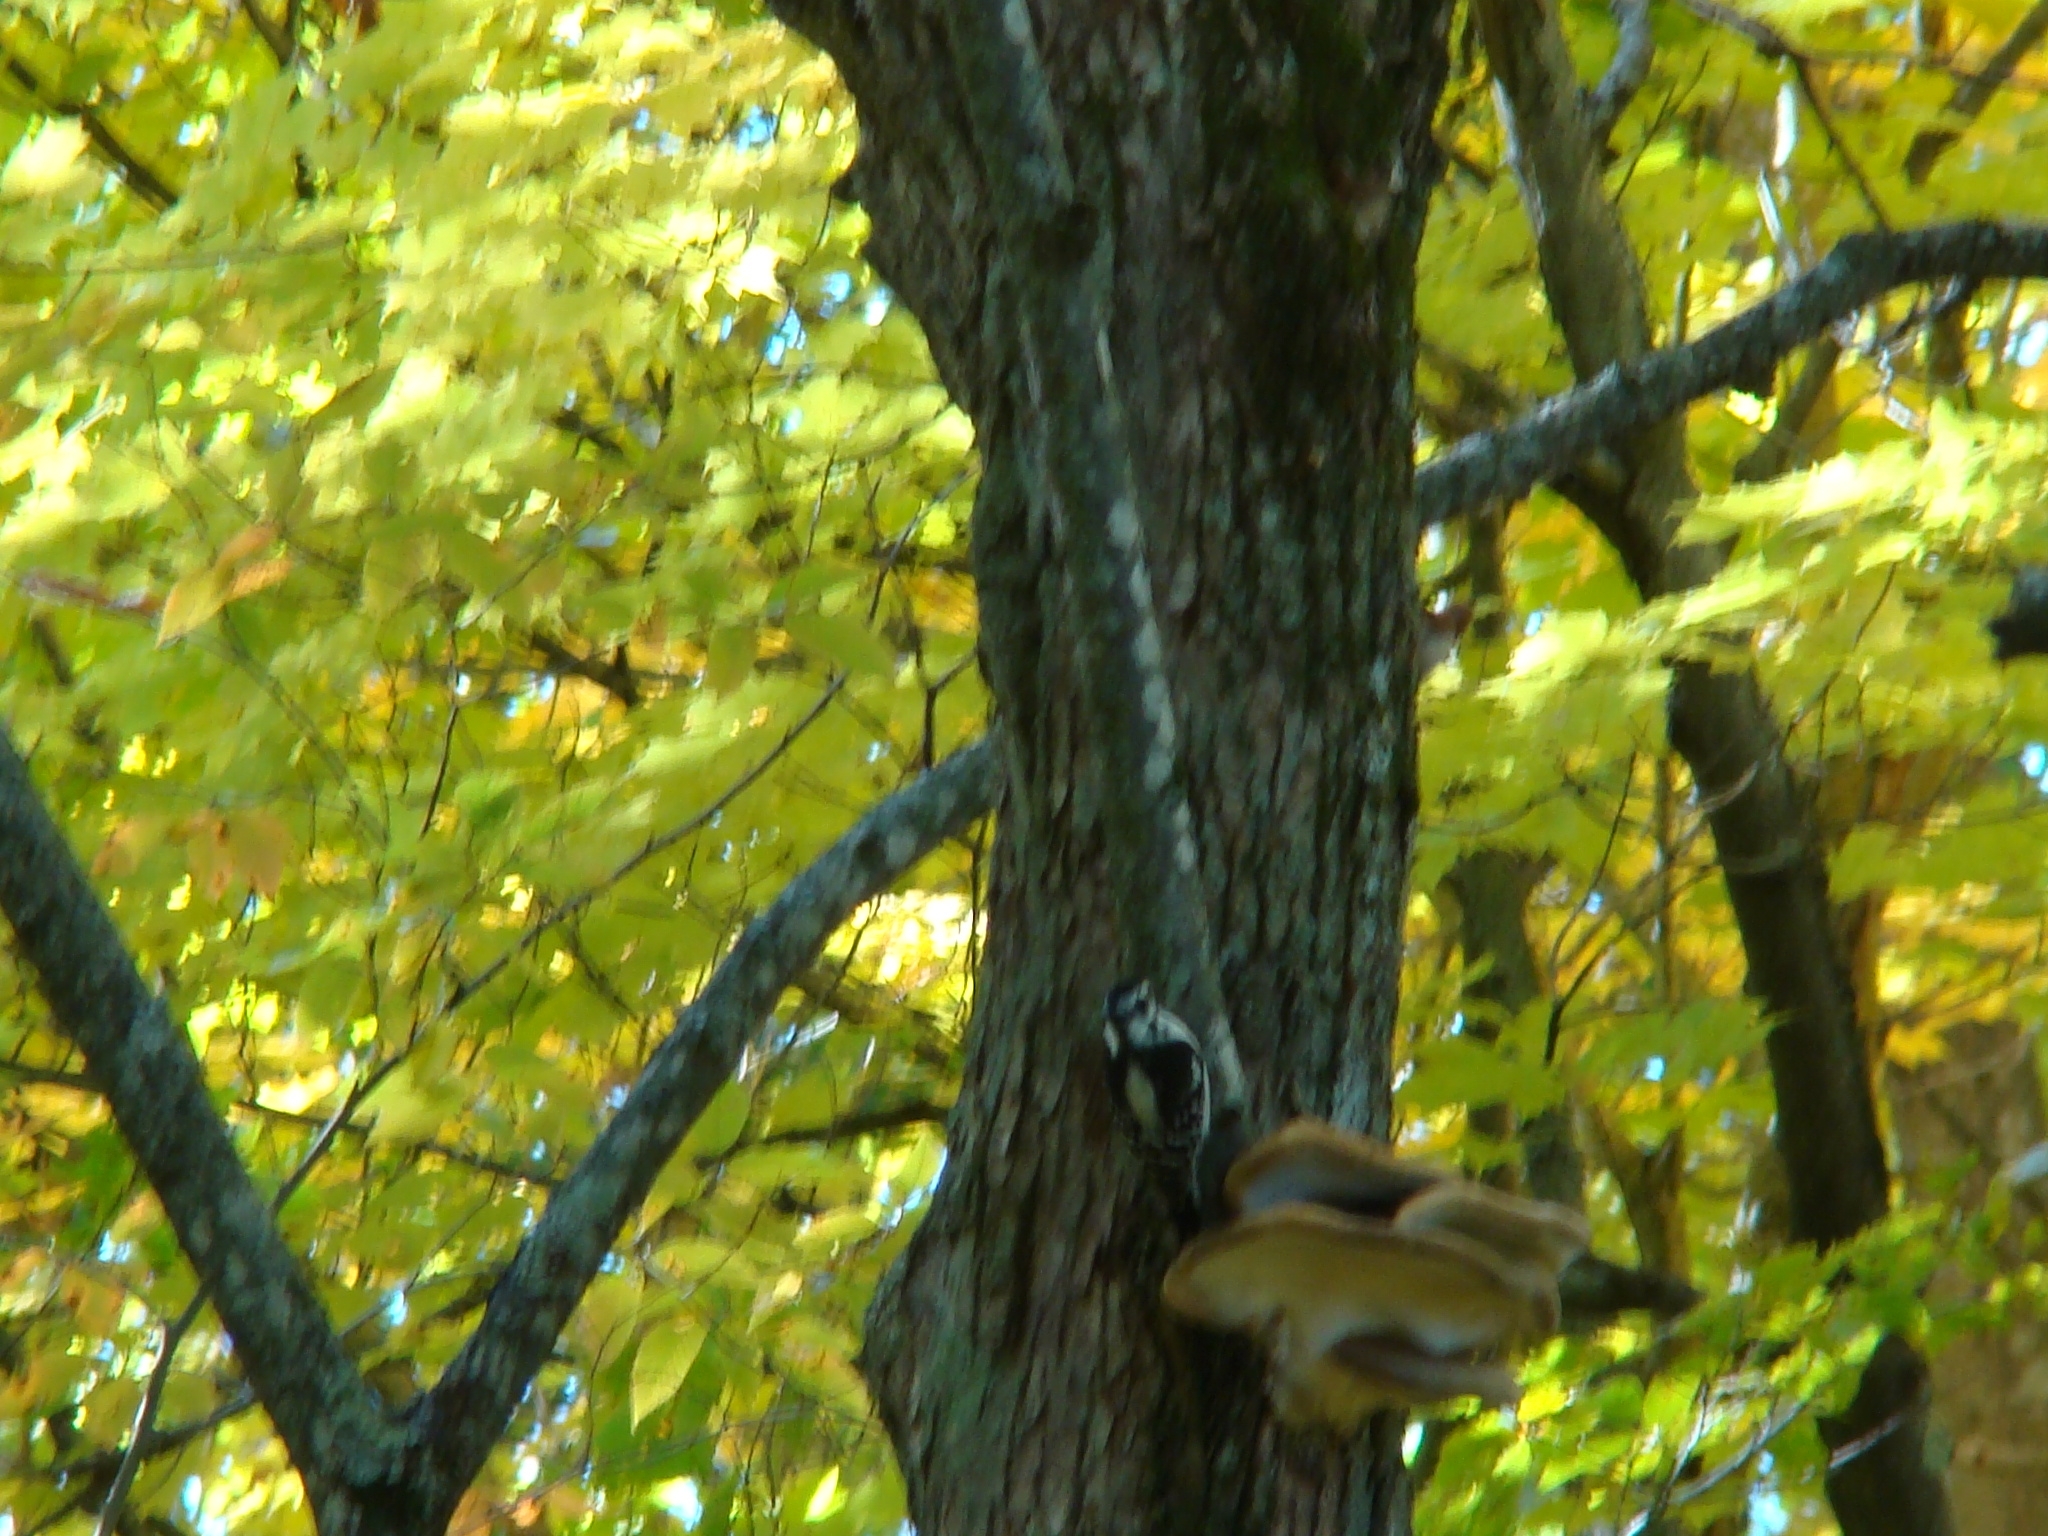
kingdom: Animalia
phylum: Chordata
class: Aves
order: Piciformes
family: Picidae
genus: Dryobates
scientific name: Dryobates pubescens
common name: Downy woodpecker
